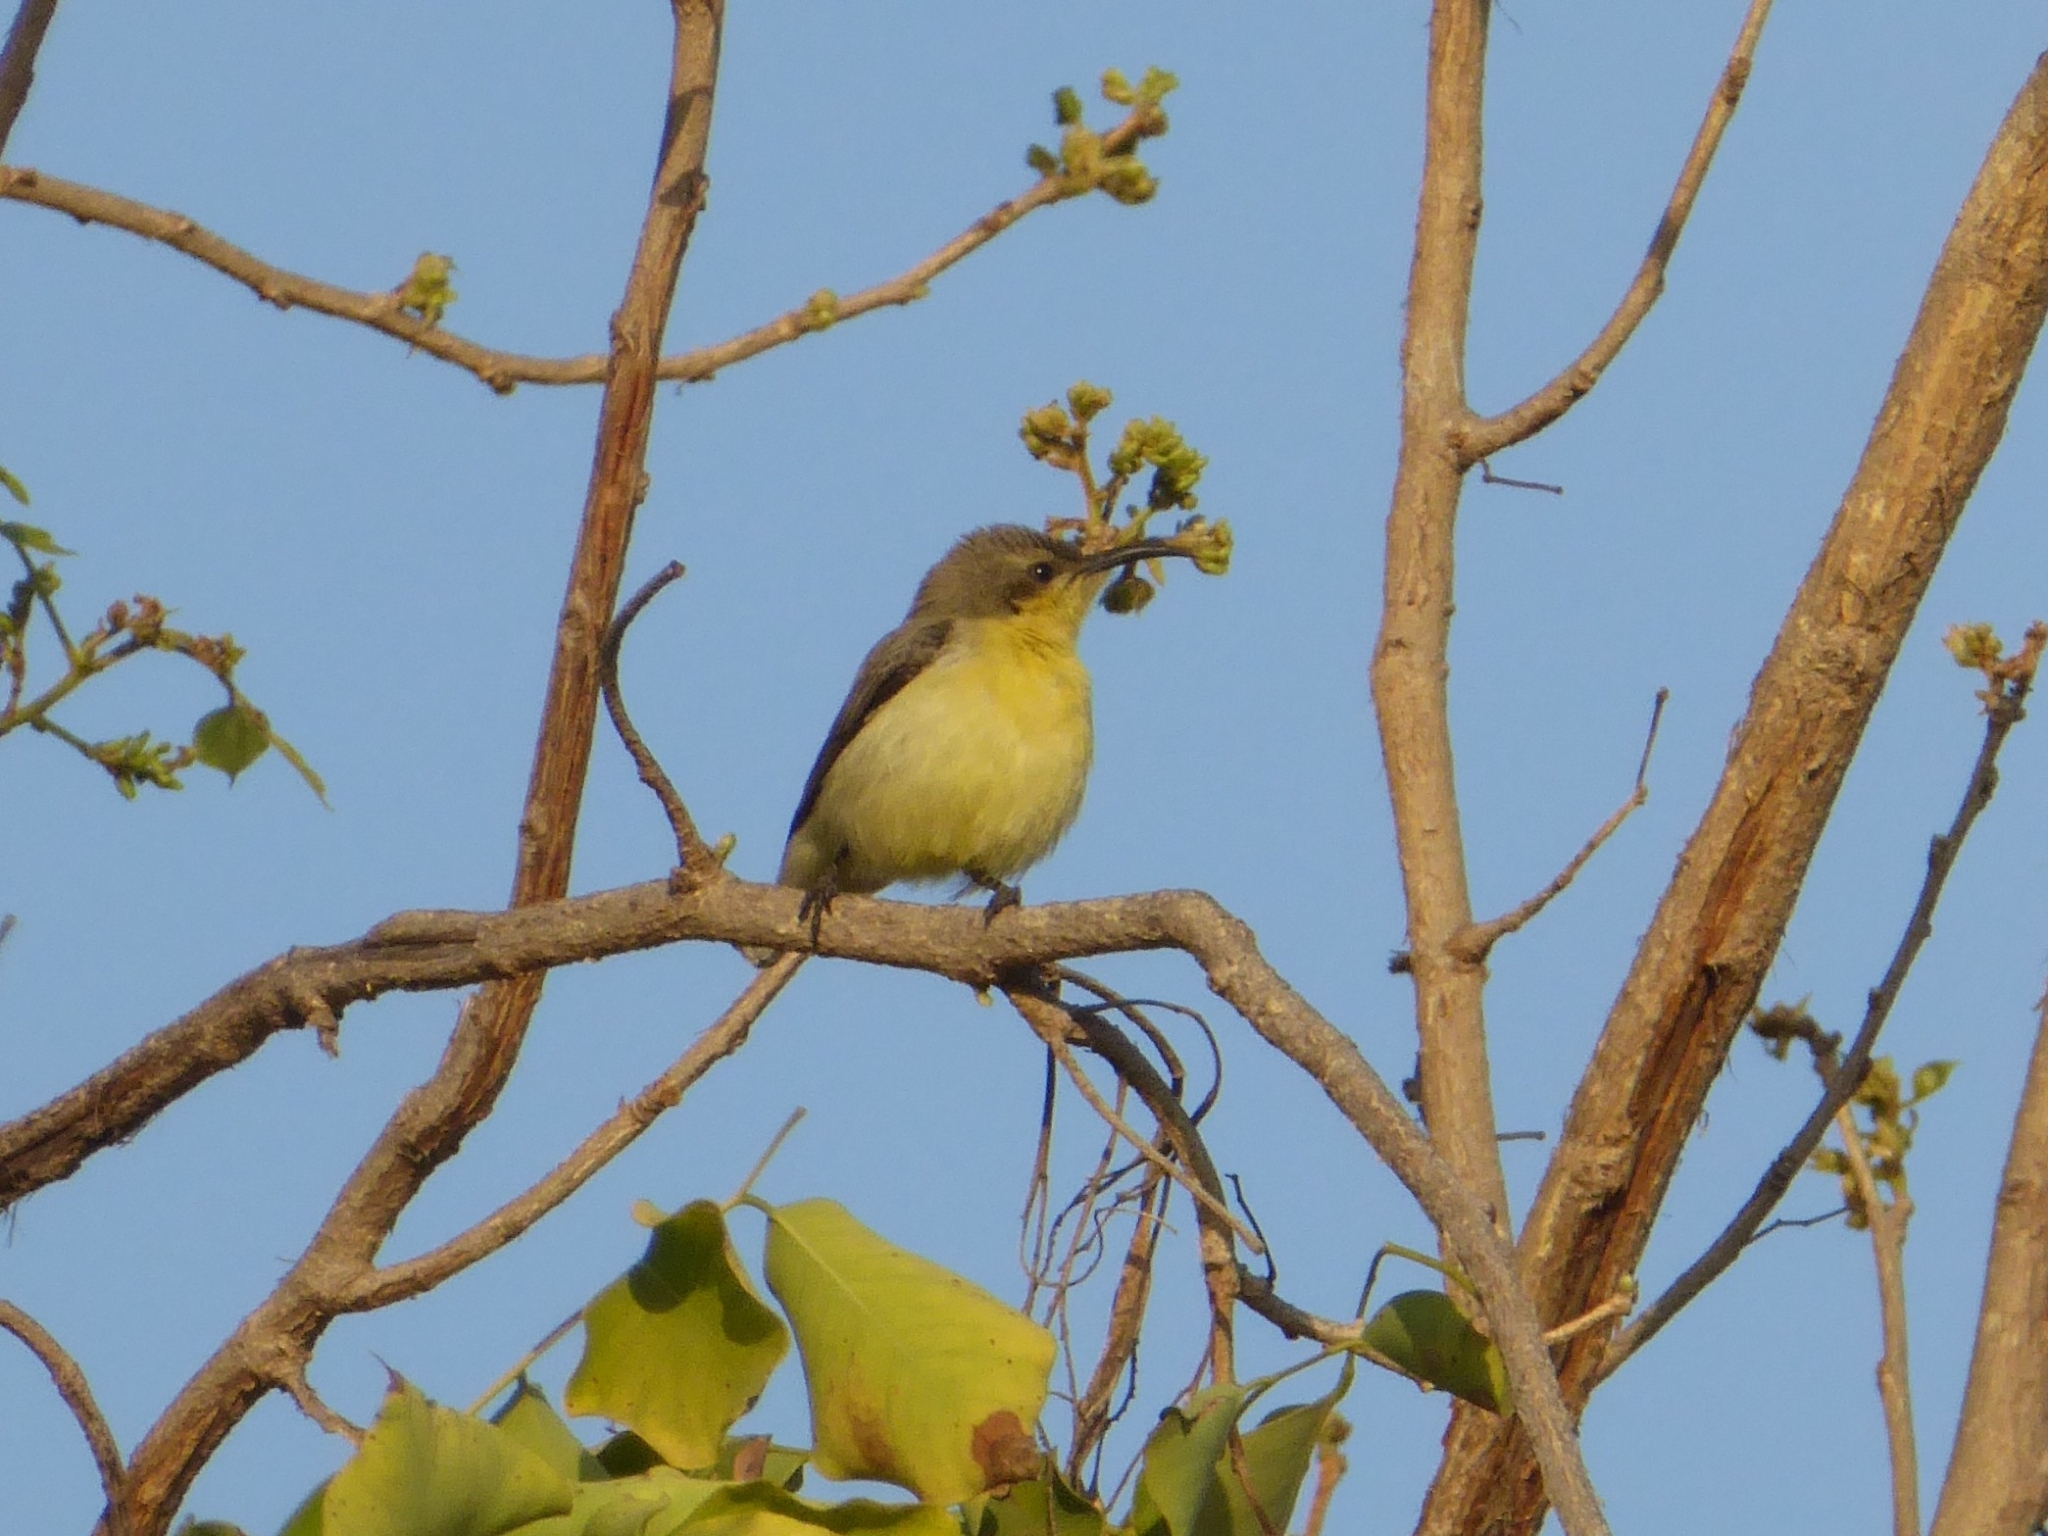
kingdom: Animalia
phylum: Chordata
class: Aves
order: Passeriformes
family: Nectariniidae
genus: Cinnyris
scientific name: Cinnyris asiaticus
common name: Purple sunbird
